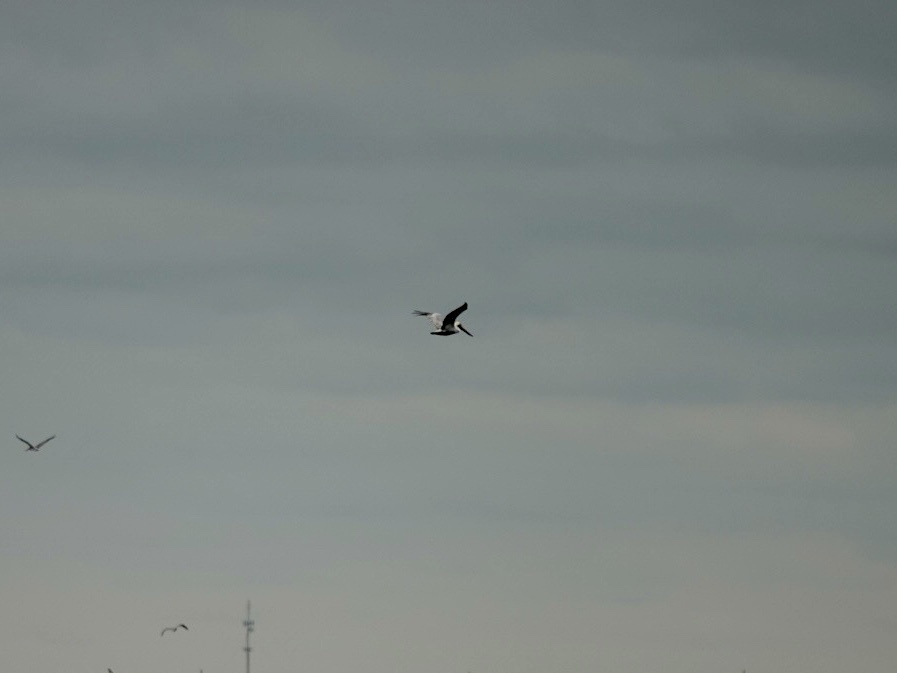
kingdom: Animalia
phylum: Chordata
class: Aves
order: Pelecaniformes
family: Pelecanidae
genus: Pelecanus
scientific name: Pelecanus occidentalis
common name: Brown pelican
